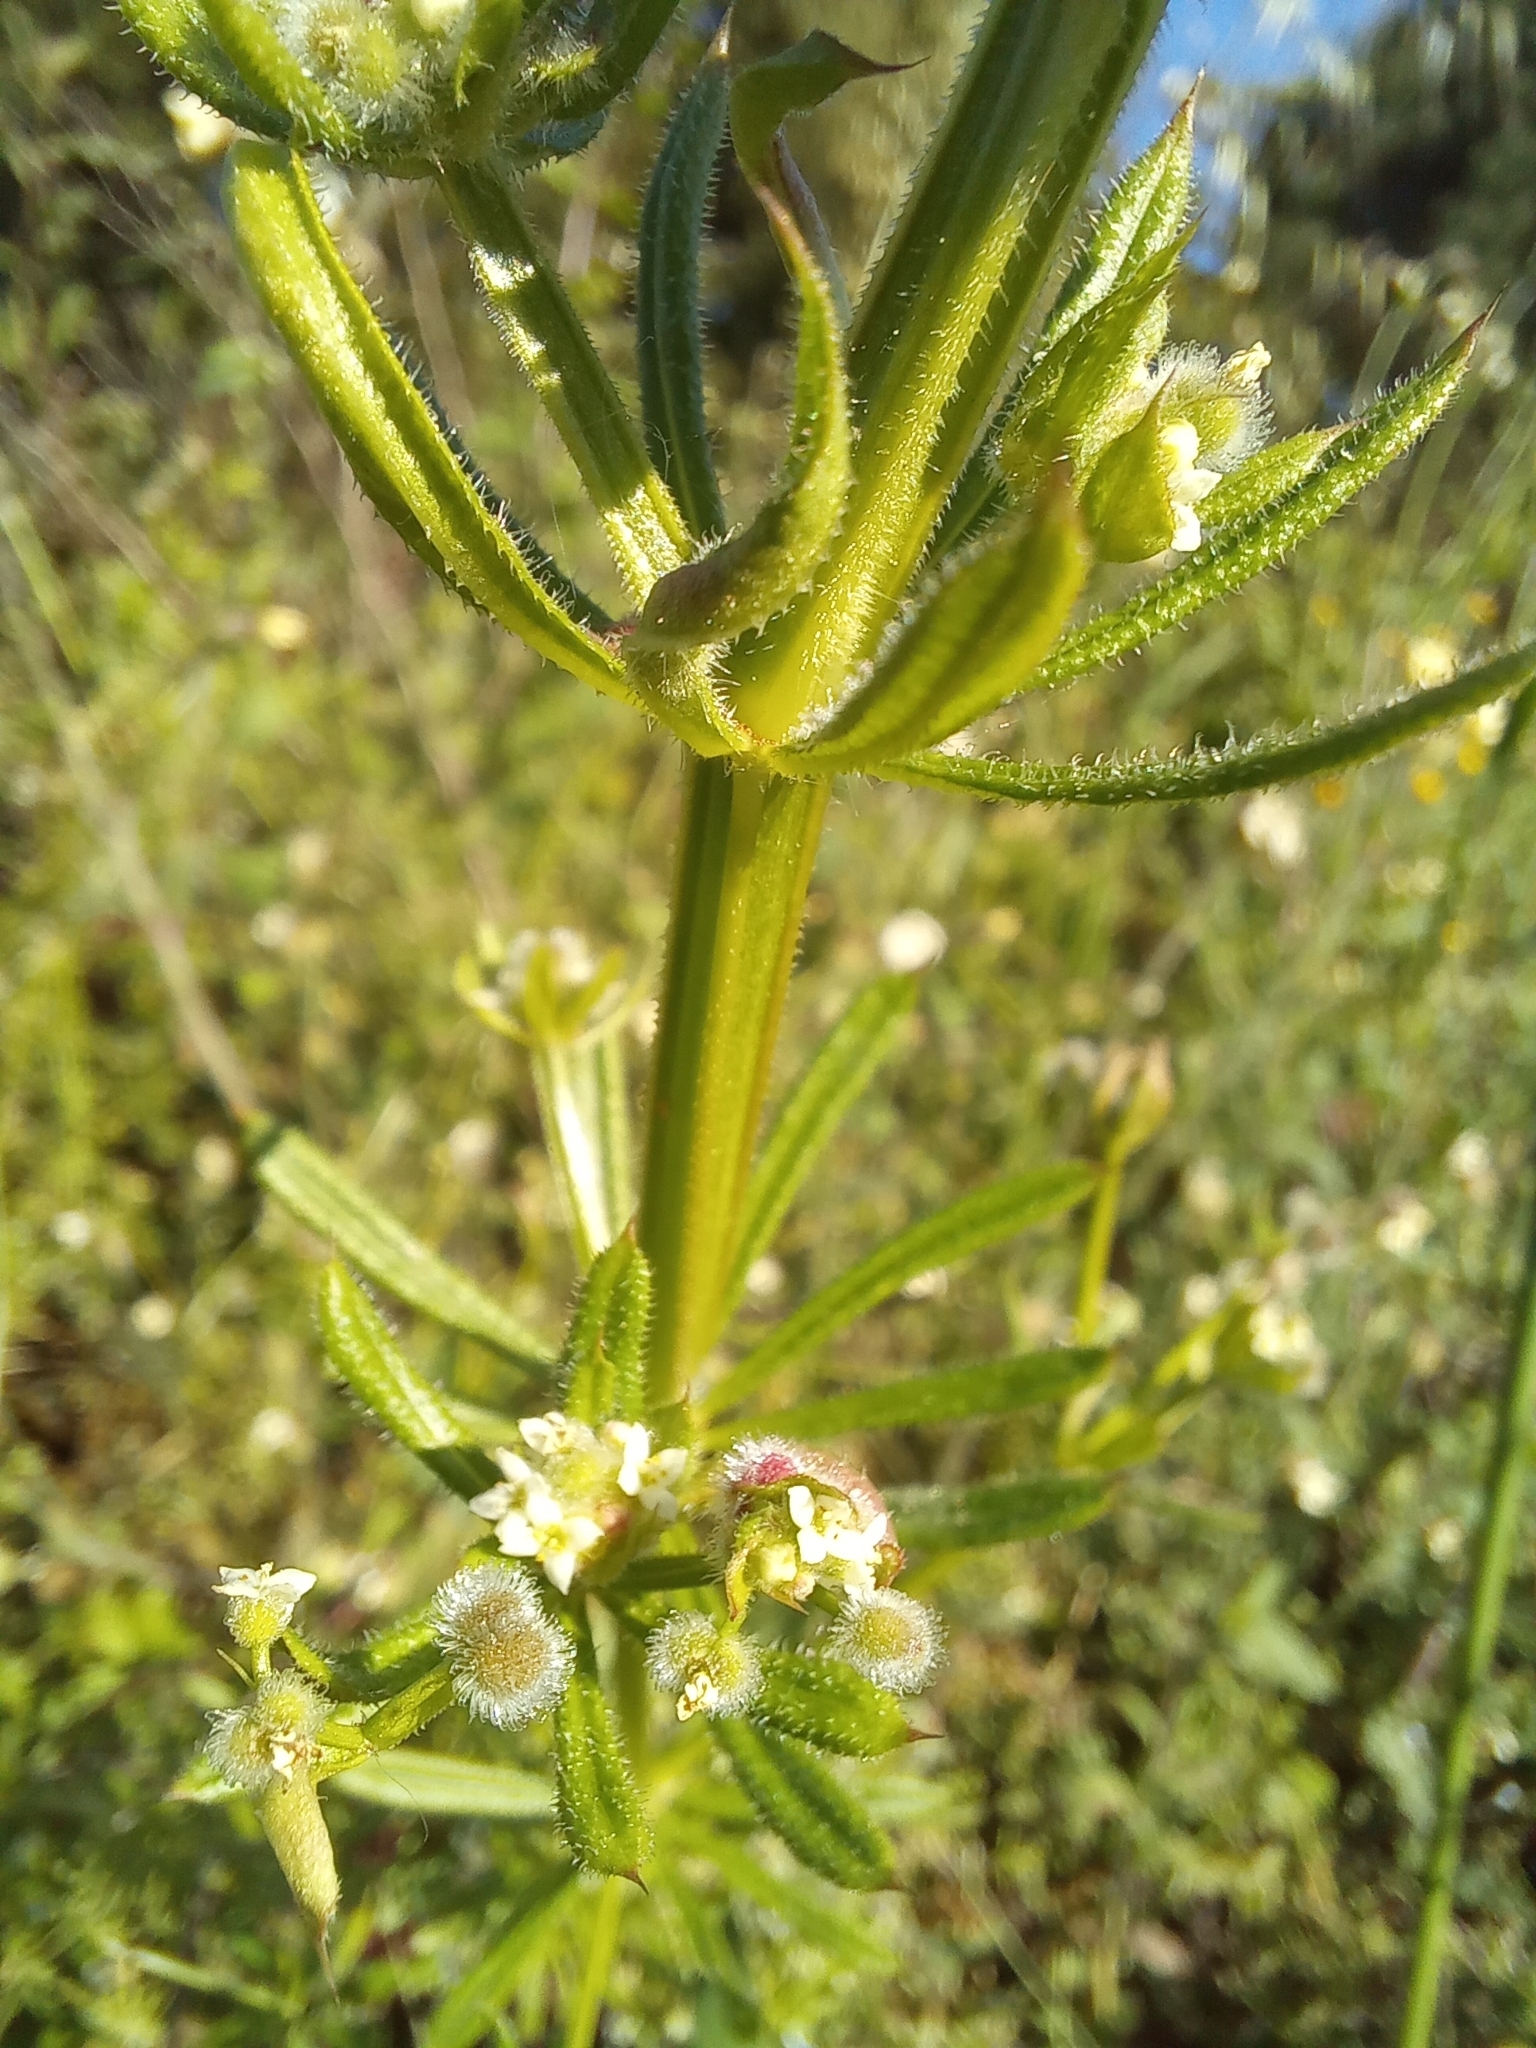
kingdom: Plantae
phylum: Tracheophyta
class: Magnoliopsida
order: Gentianales
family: Rubiaceae
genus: Galium
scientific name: Galium aparine
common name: Cleavers
